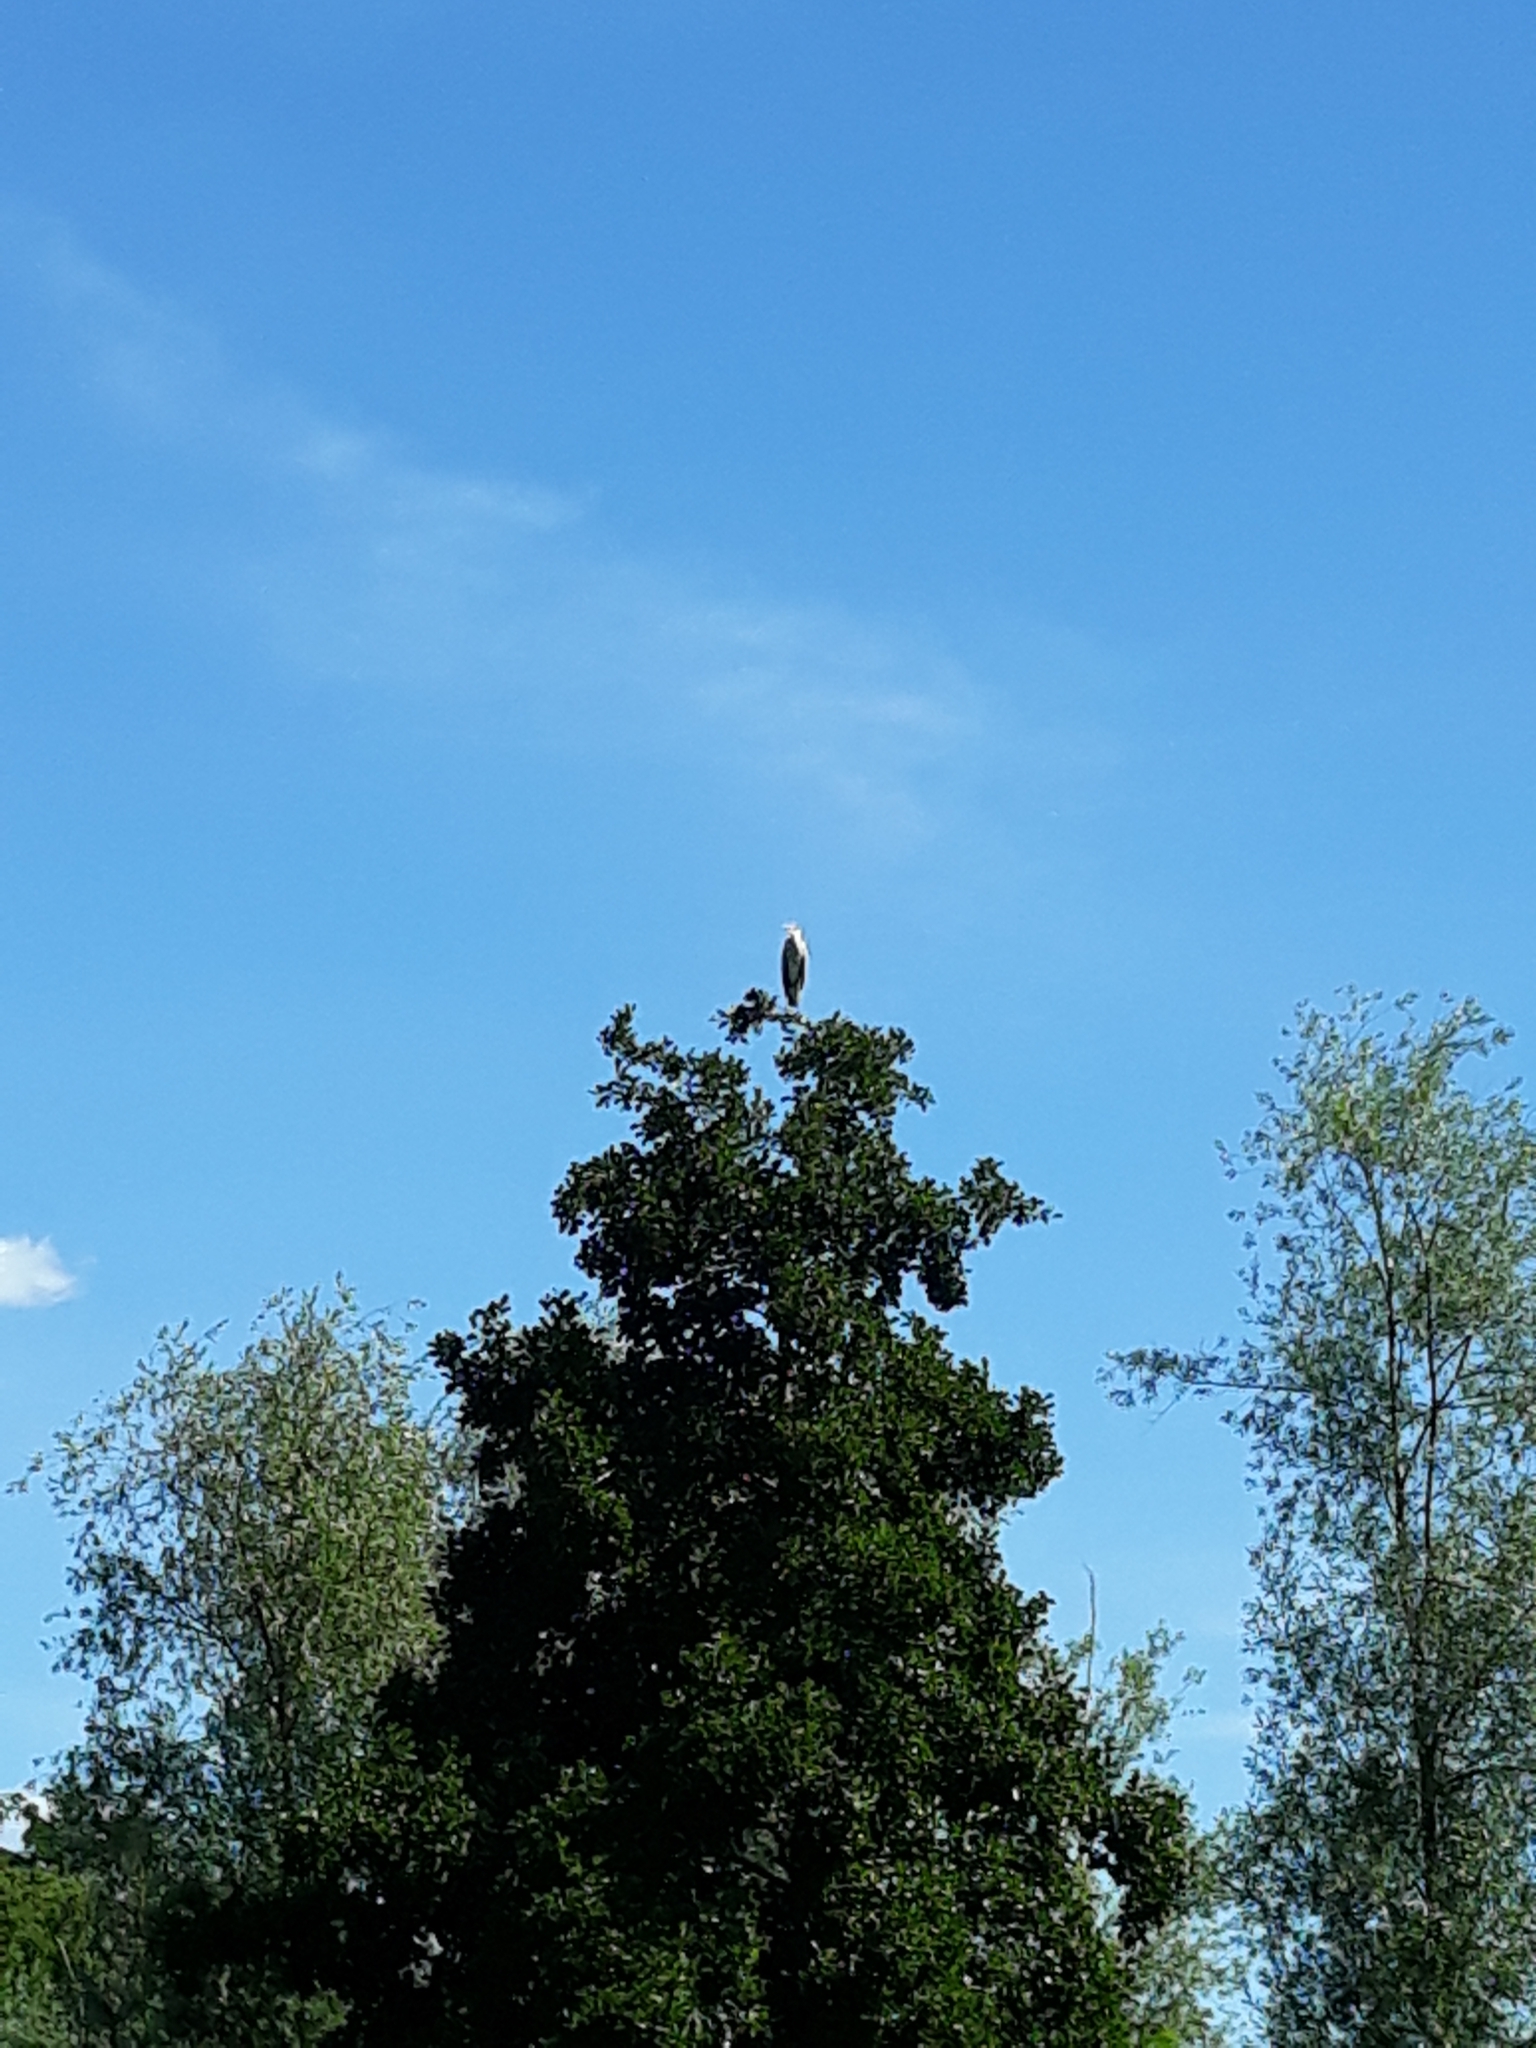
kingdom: Animalia
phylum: Chordata
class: Aves
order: Pelecaniformes
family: Ardeidae
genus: Ardea
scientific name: Ardea cinerea
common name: Grey heron
